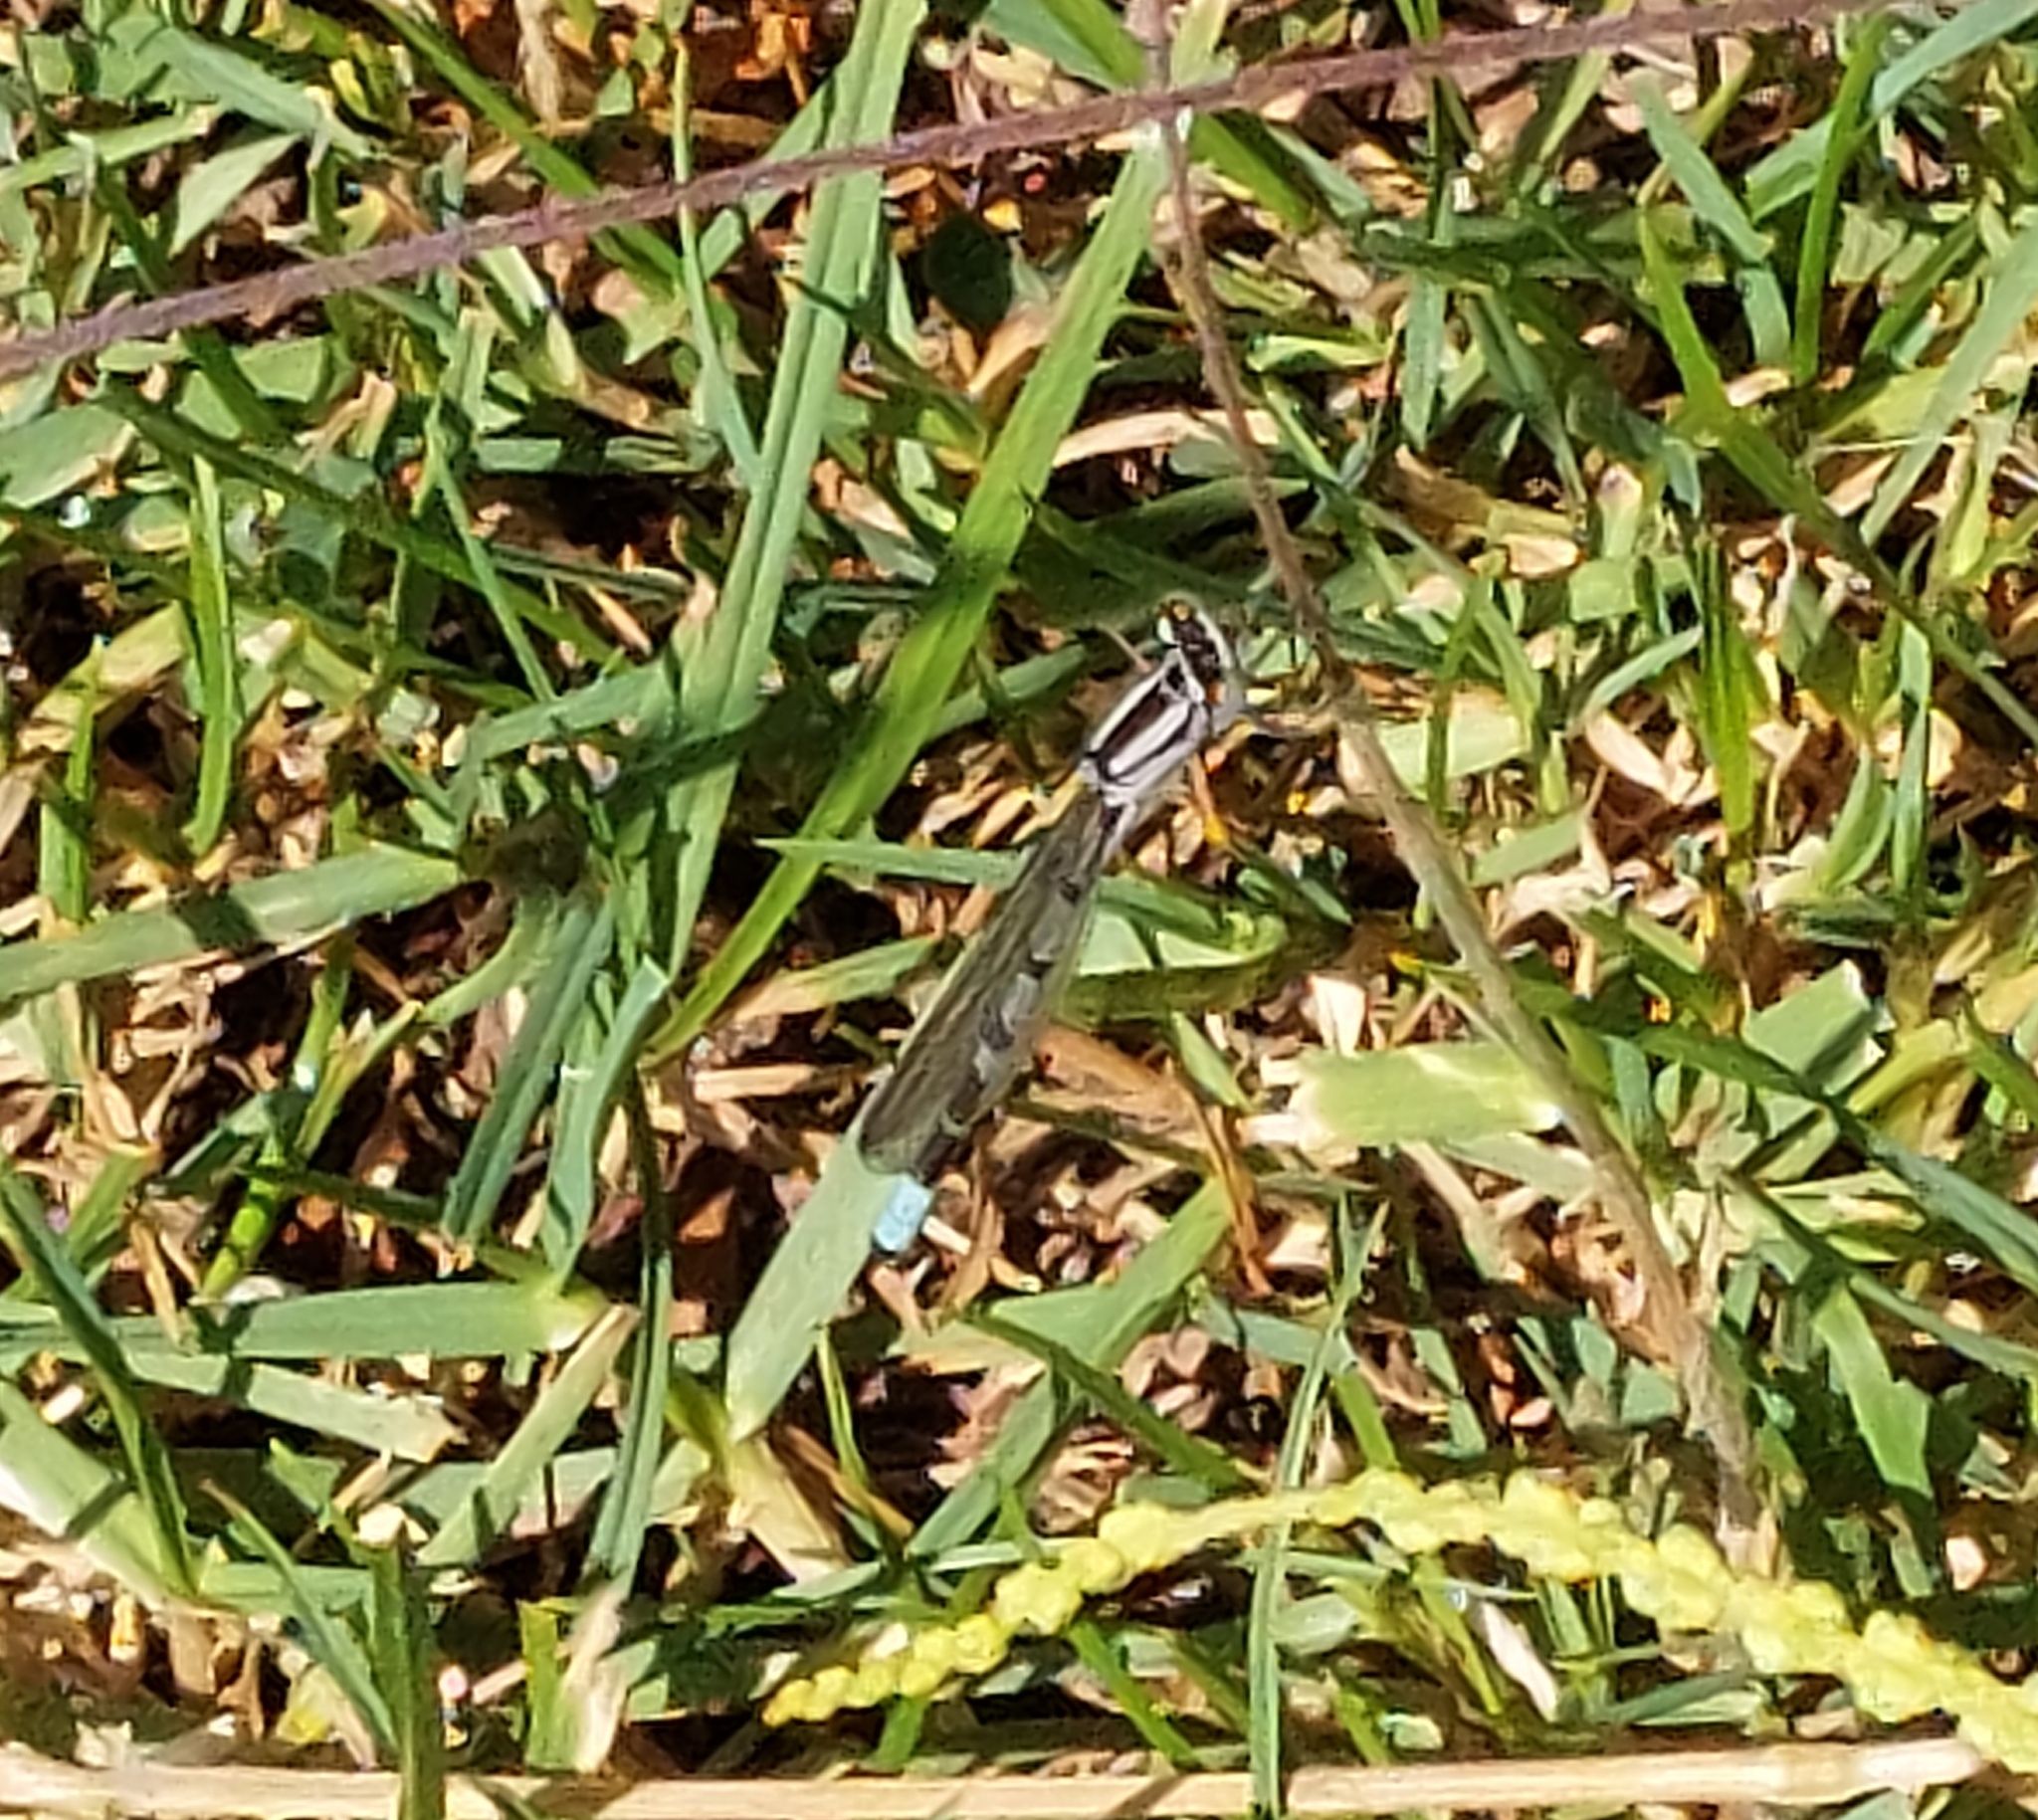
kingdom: Animalia
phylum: Arthropoda
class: Insecta
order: Odonata
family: Coenagrionidae
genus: Enallagma
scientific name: Enallagma cyathigerum
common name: Common blue damselfly
